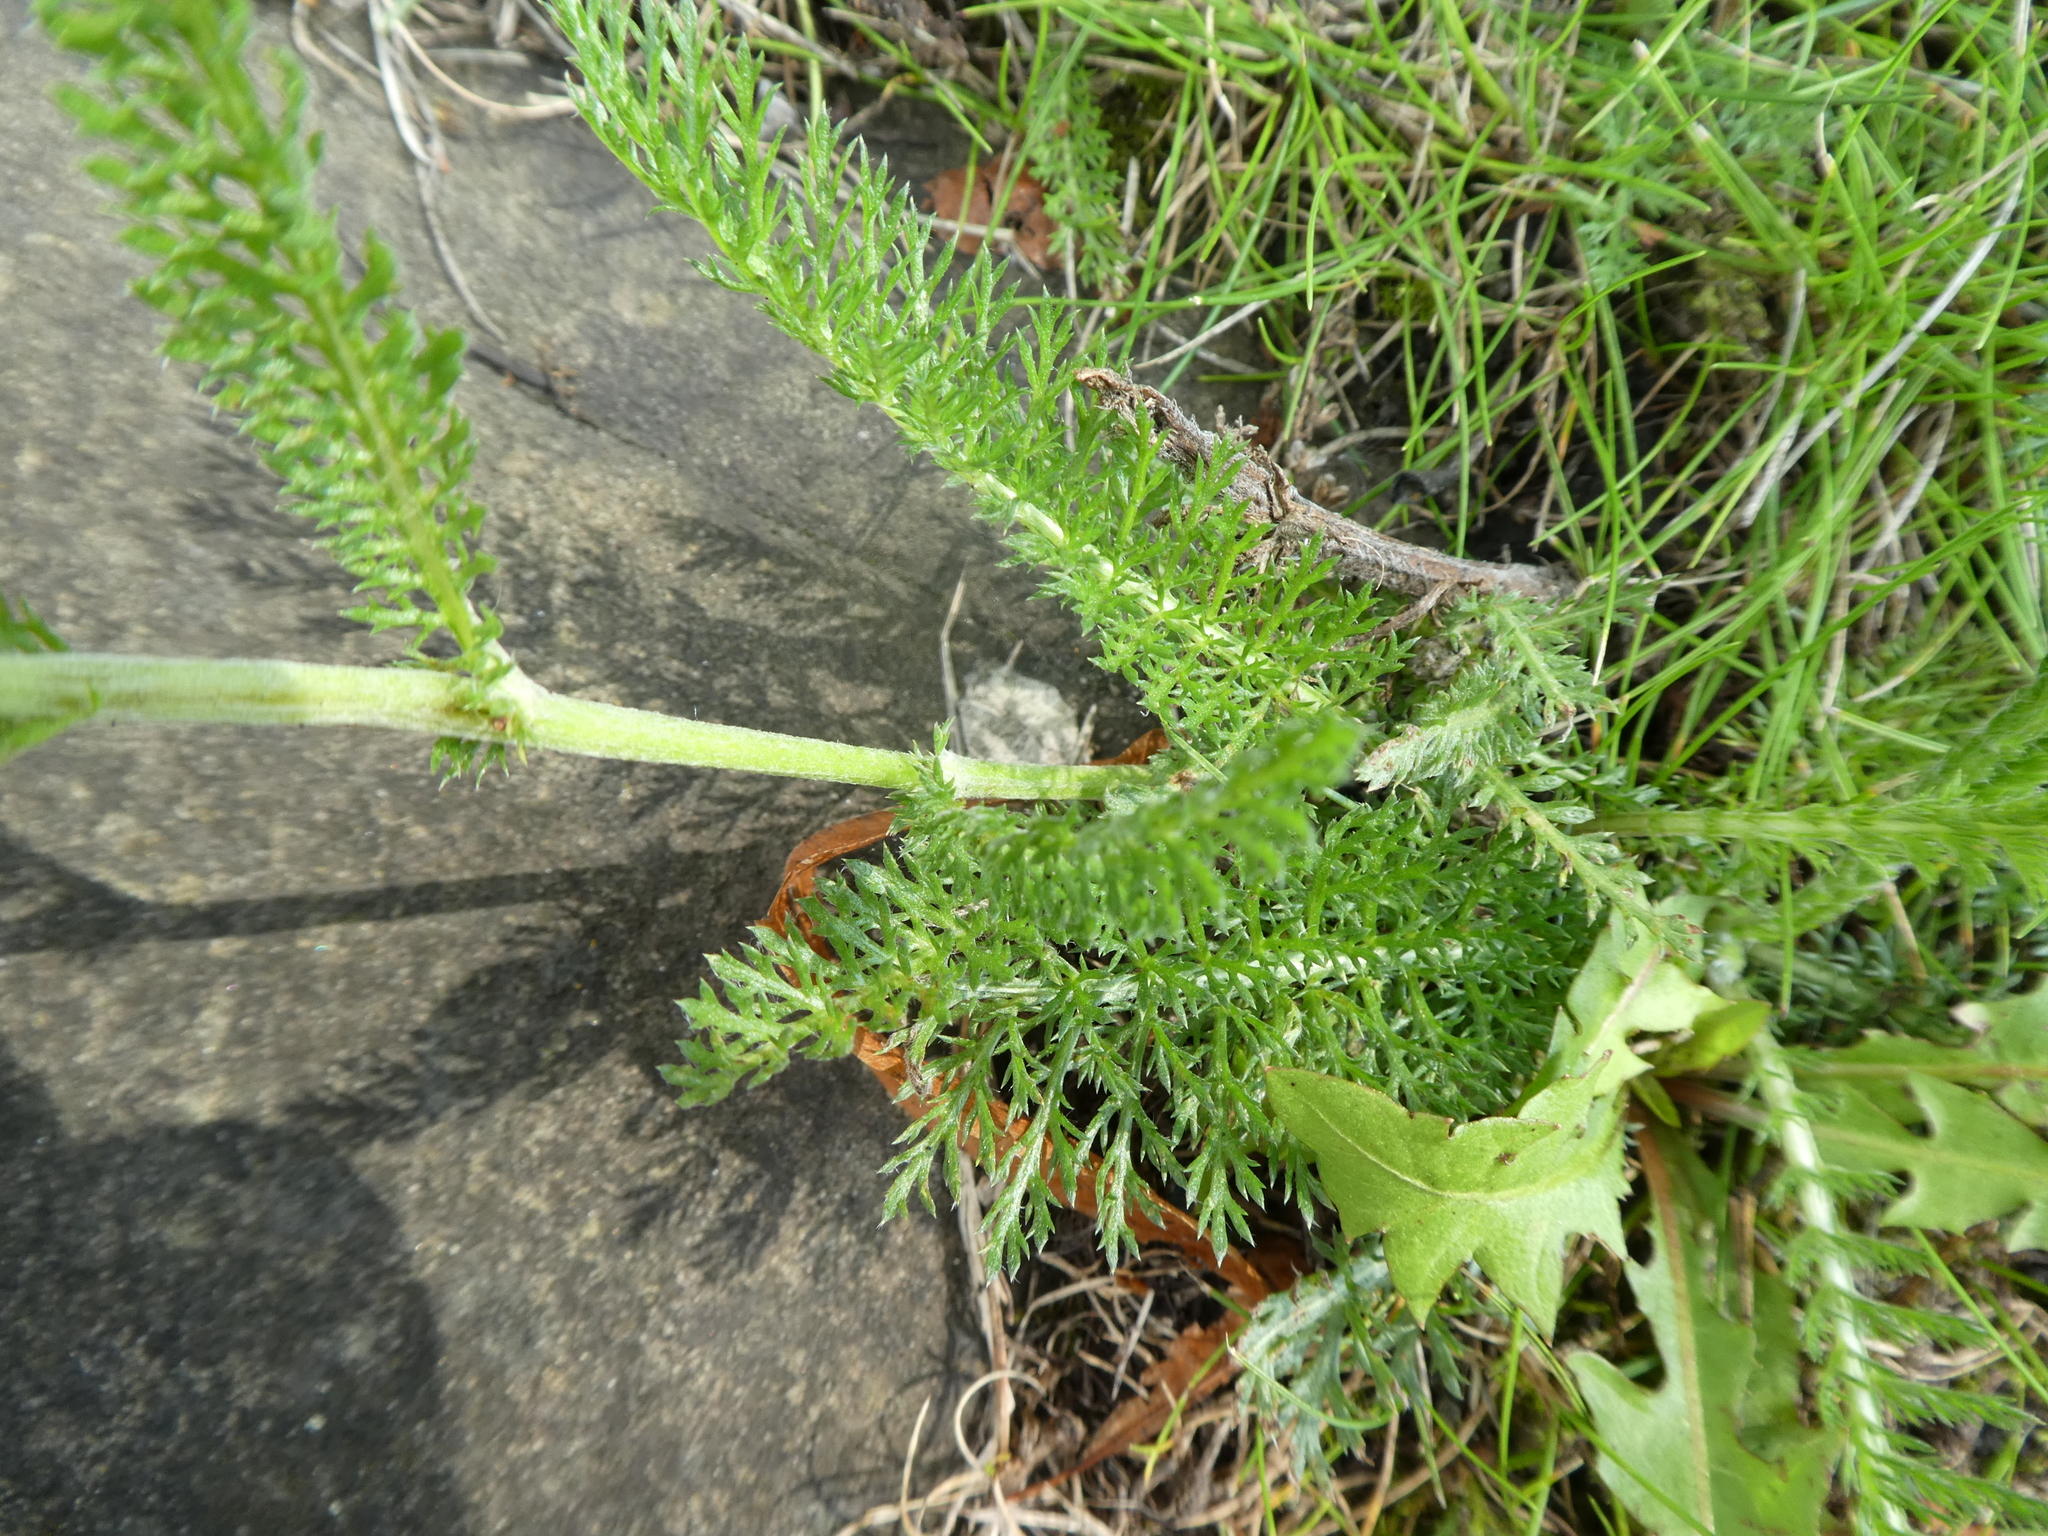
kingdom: Plantae
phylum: Tracheophyta
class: Magnoliopsida
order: Asterales
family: Asteraceae
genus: Achillea
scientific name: Achillea millefolium
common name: Yarrow
